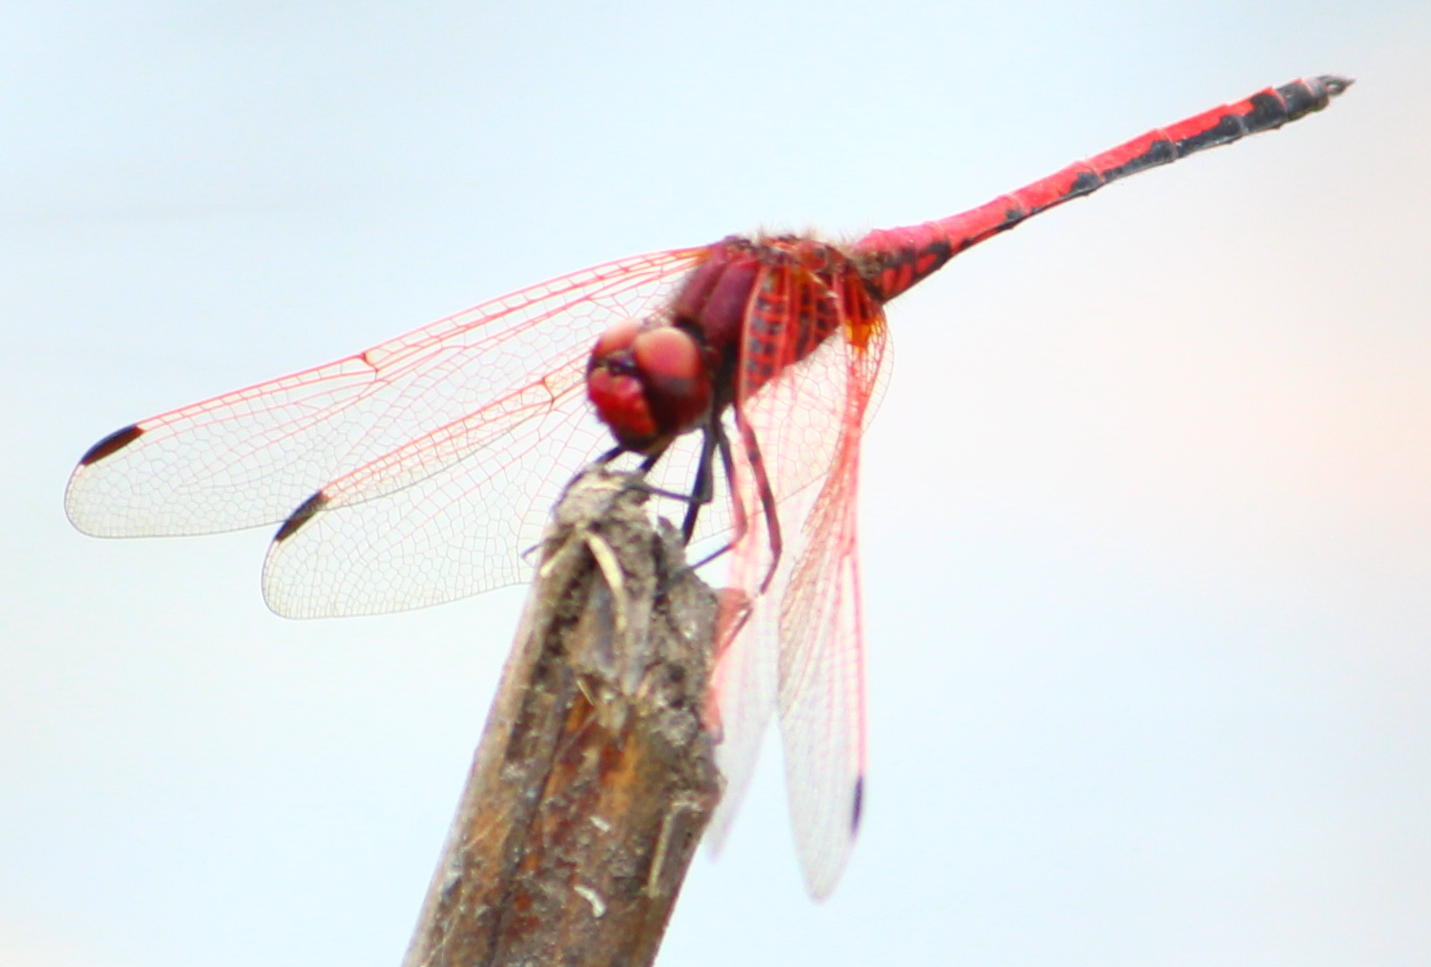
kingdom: Animalia
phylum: Arthropoda
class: Insecta
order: Odonata
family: Libellulidae
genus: Trithemis
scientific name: Trithemis arteriosa
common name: Red-veined dropwing
